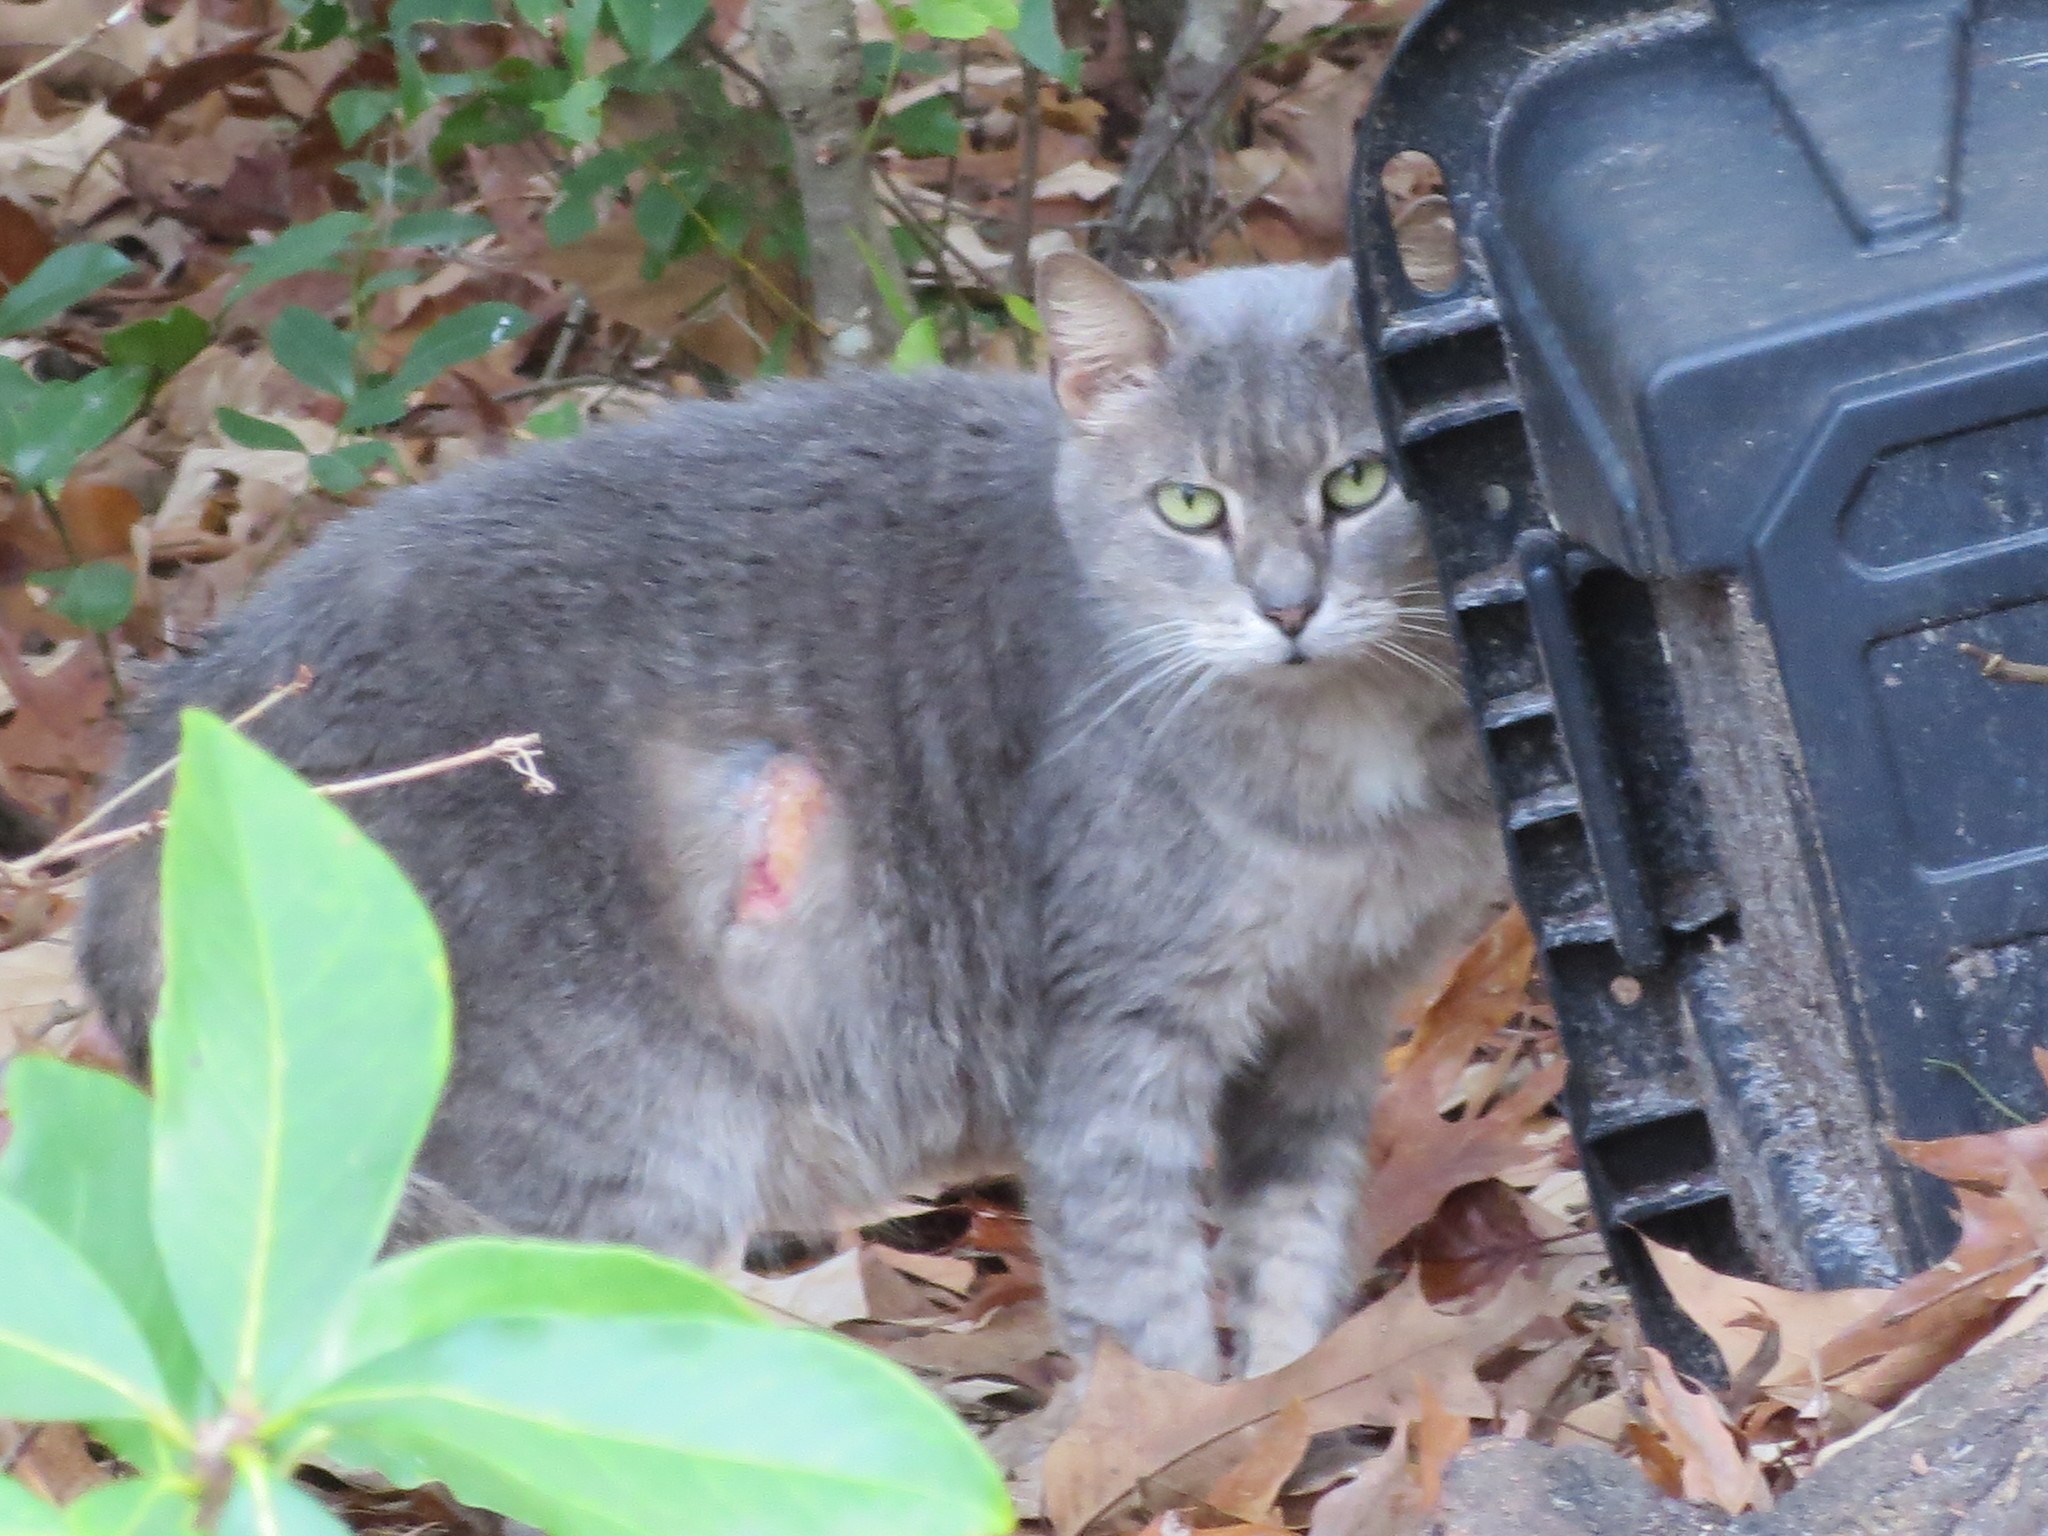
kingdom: Animalia
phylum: Chordata
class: Mammalia
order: Carnivora
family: Felidae
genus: Felis
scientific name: Felis catus
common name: Domestic cat
